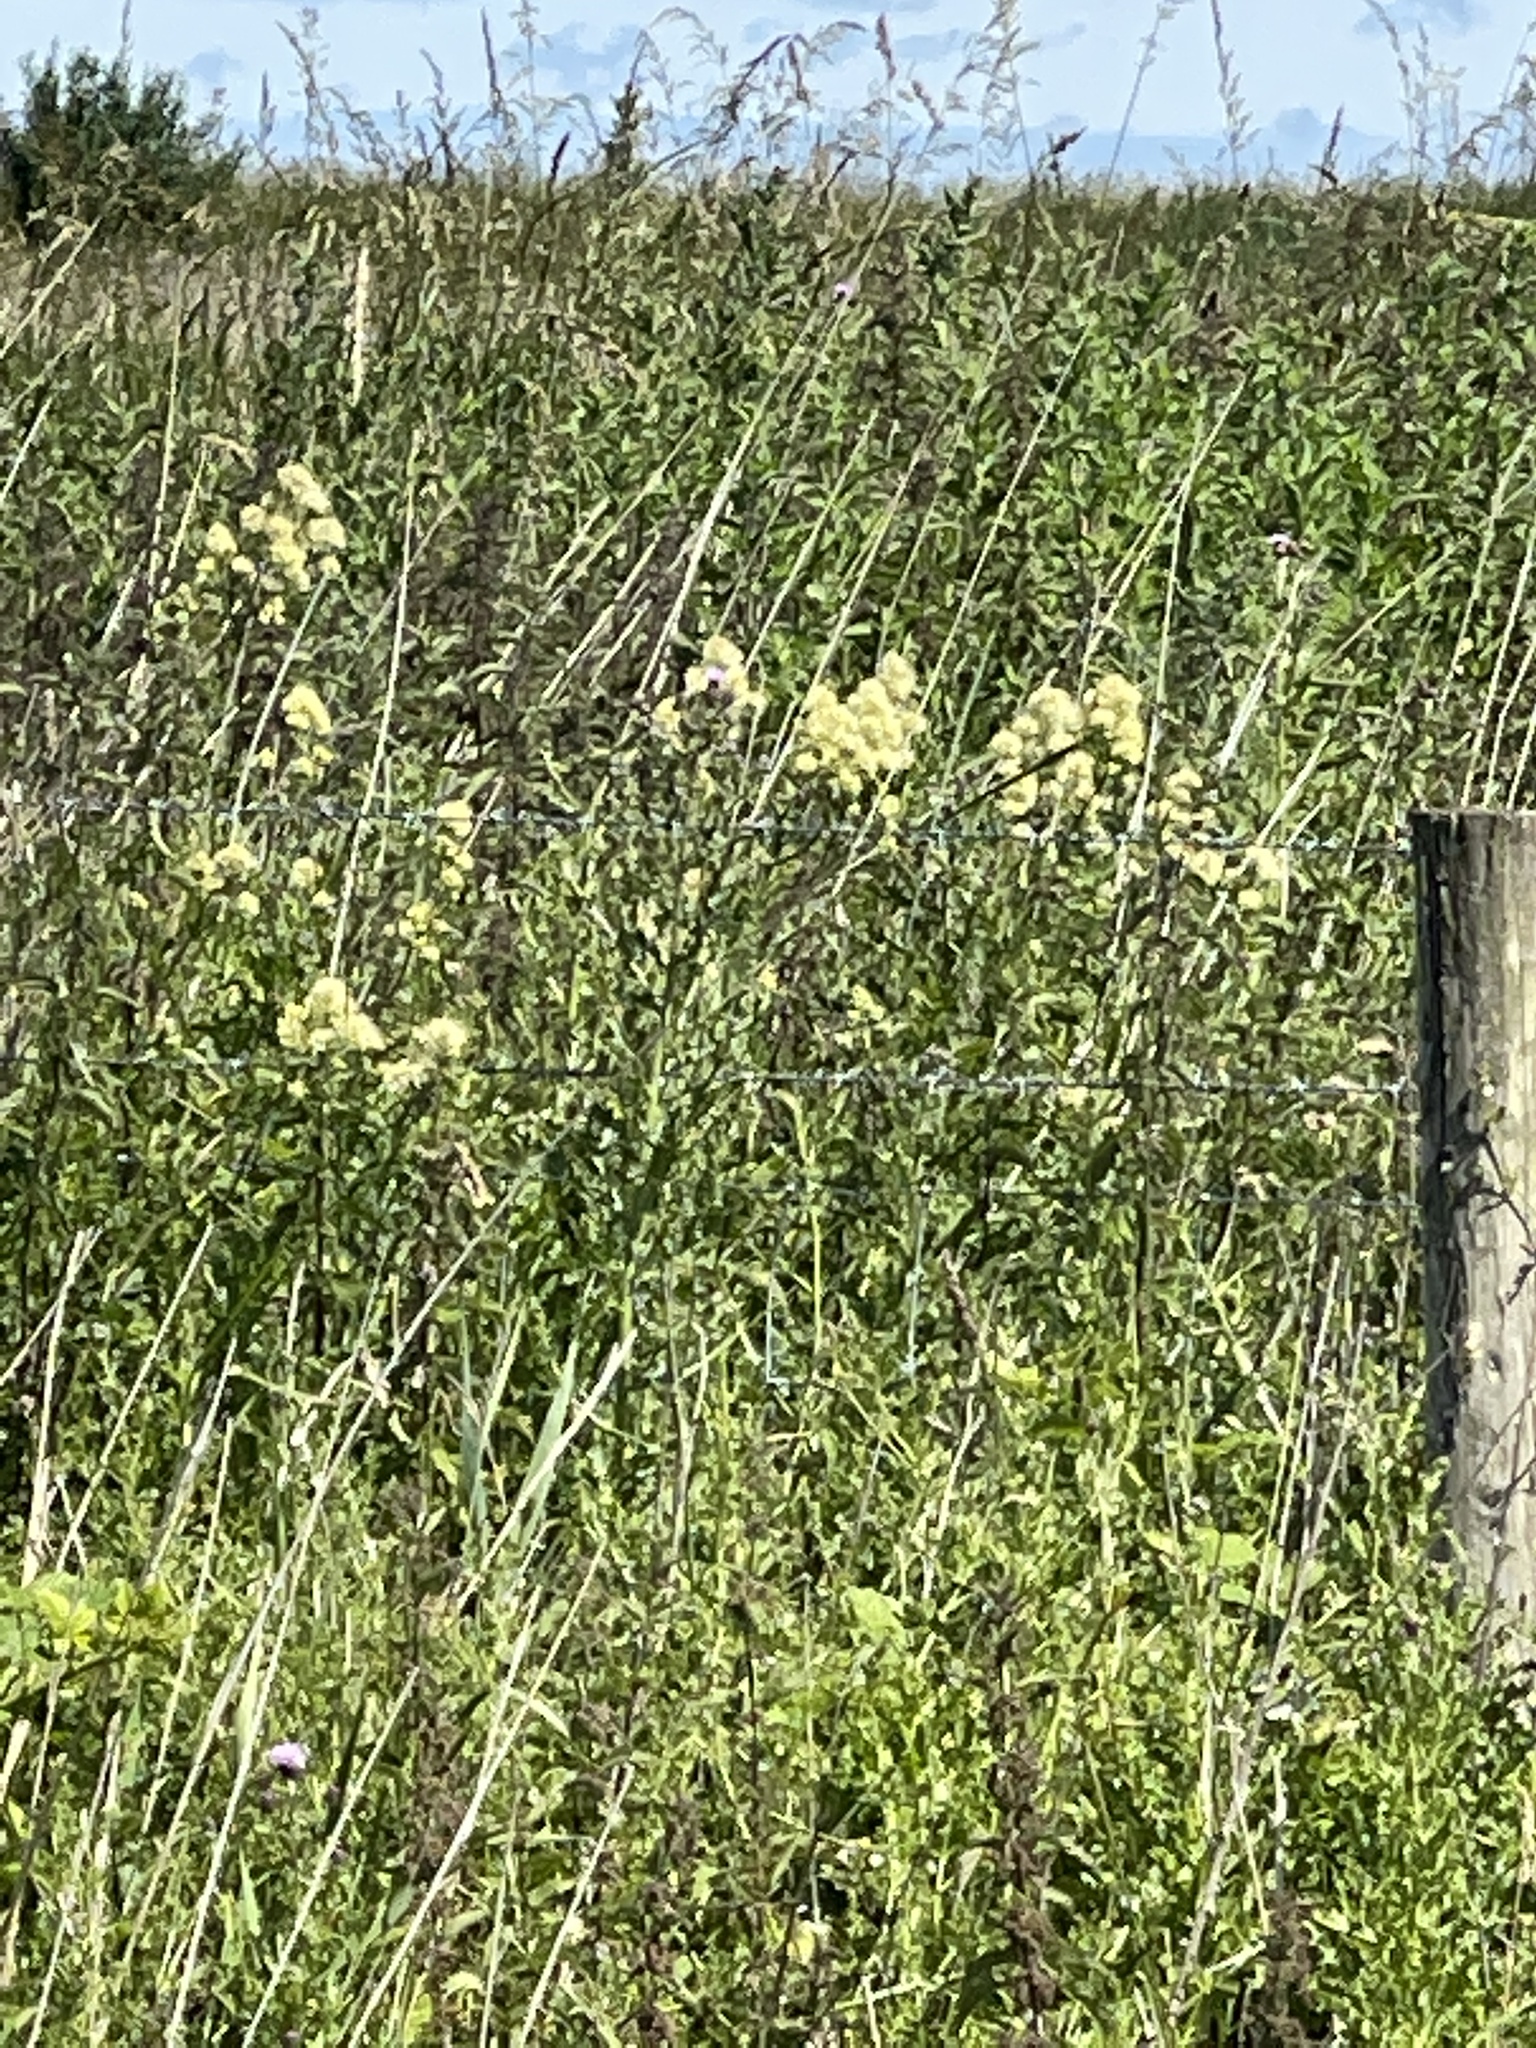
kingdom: Plantae
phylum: Tracheophyta
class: Magnoliopsida
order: Ranunculales
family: Ranunculaceae
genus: Thalictrum
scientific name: Thalictrum flavum
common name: Common meadow-rue
